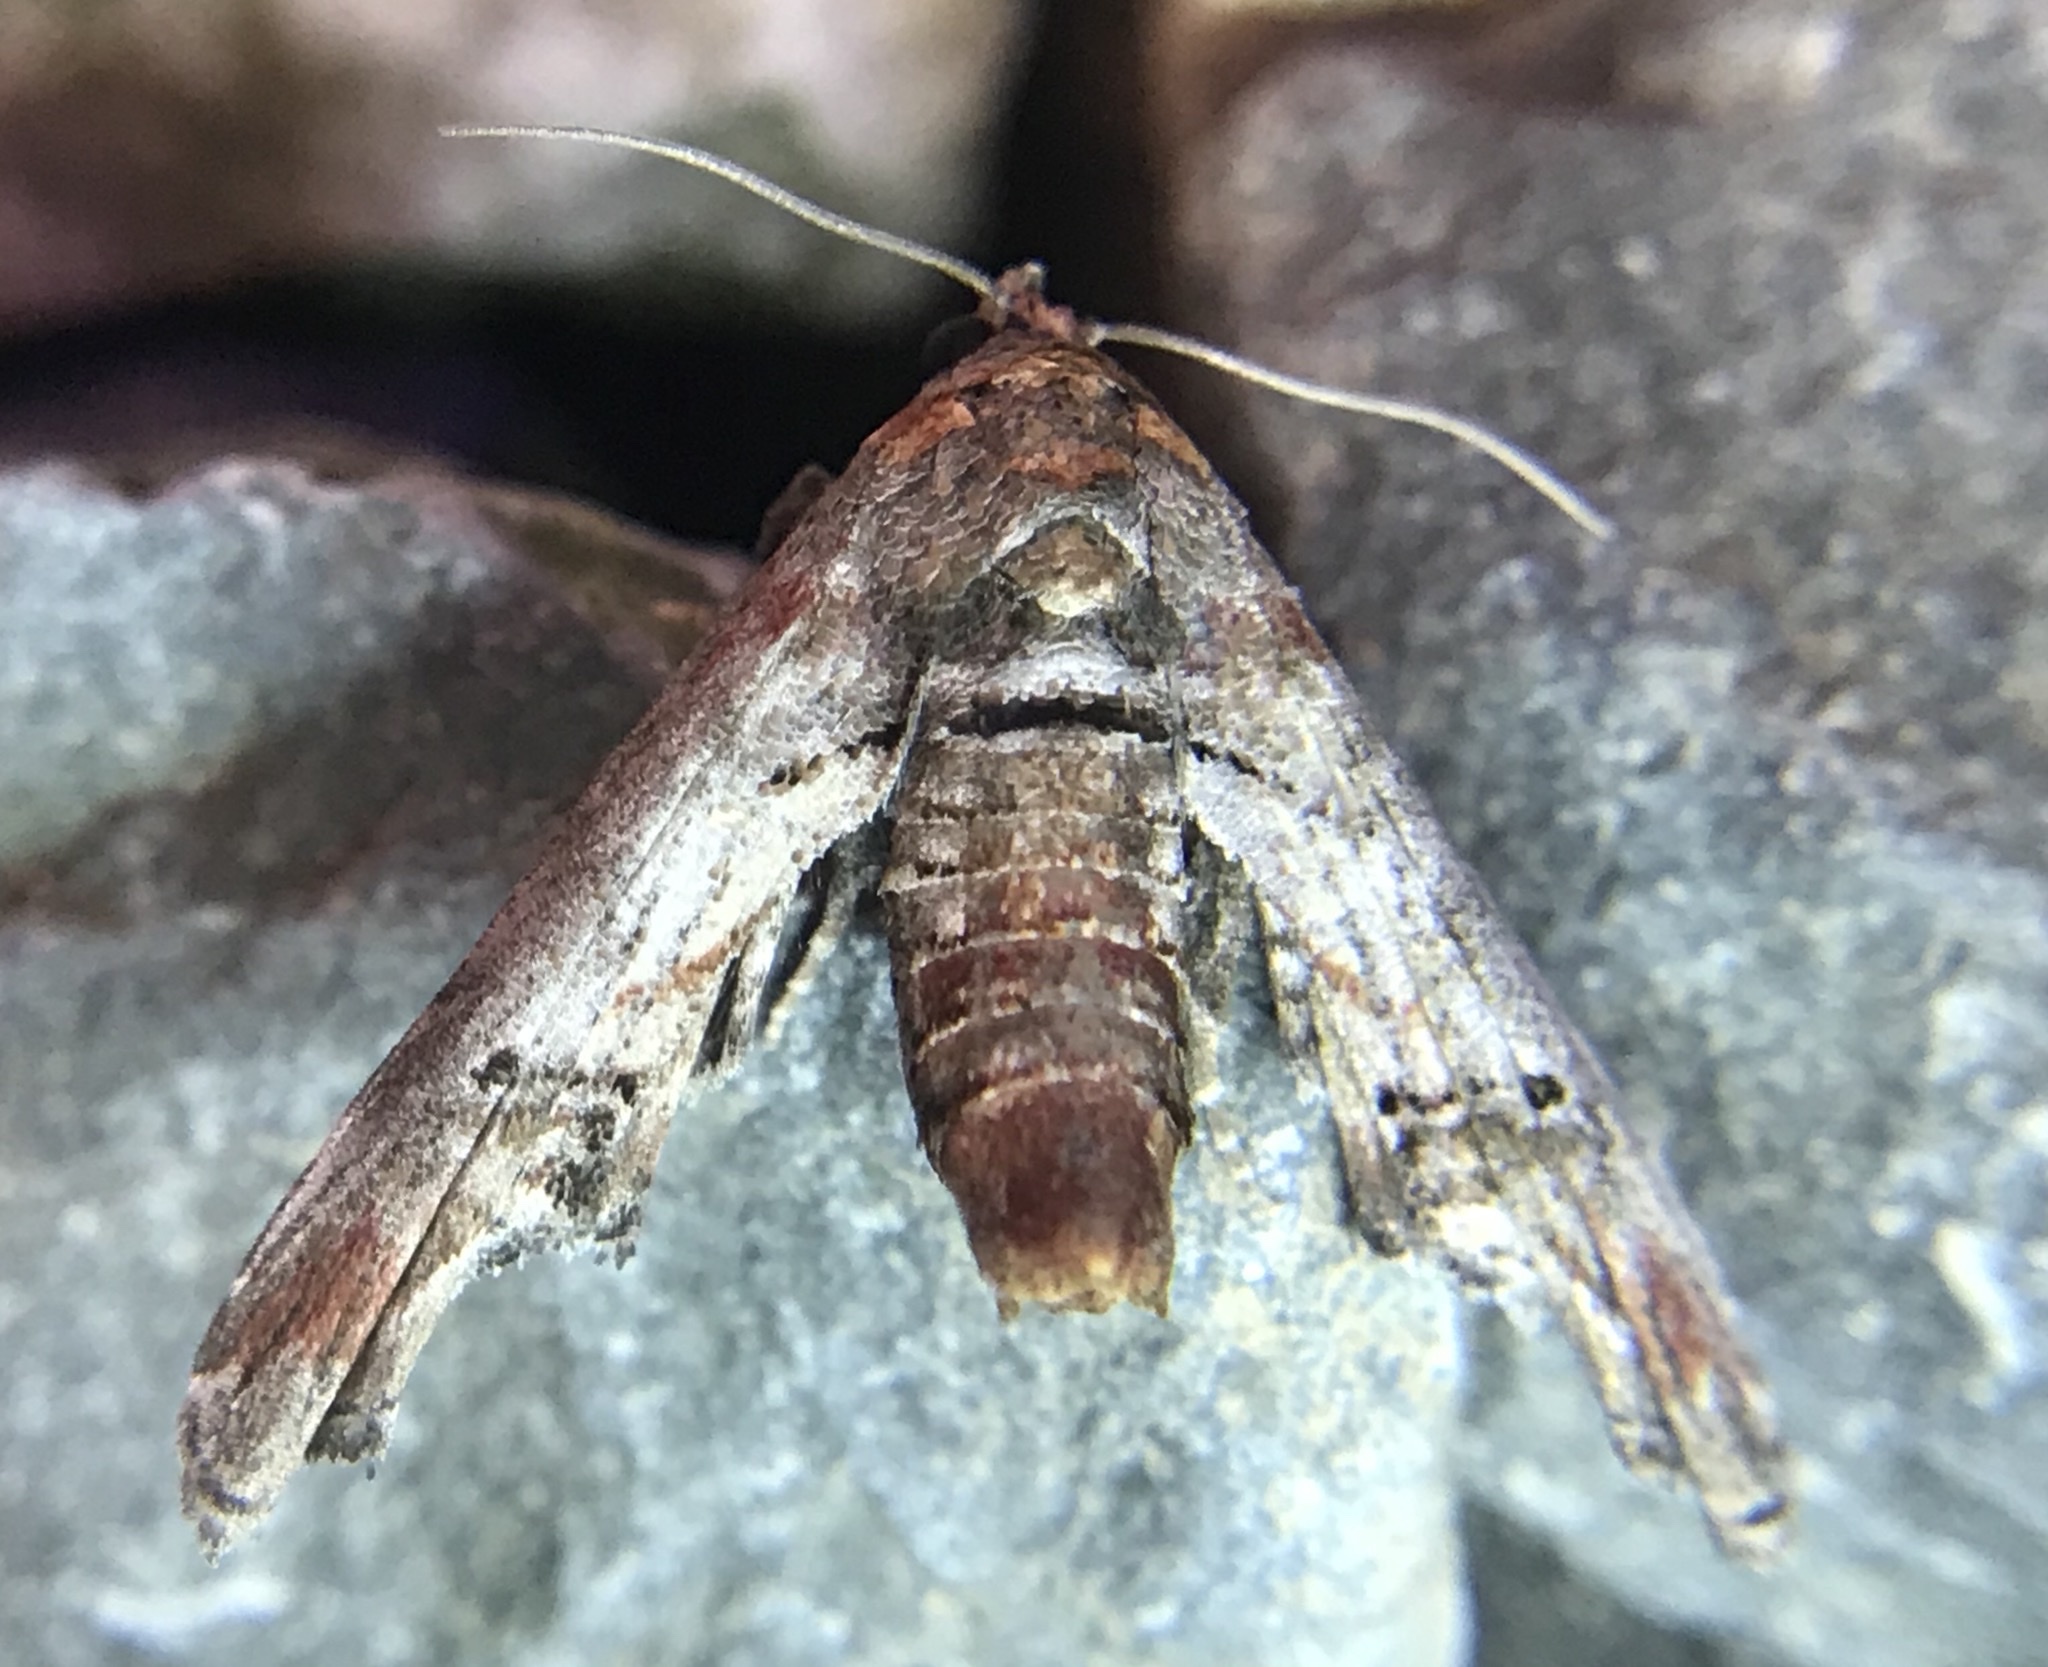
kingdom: Animalia
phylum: Arthropoda
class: Insecta
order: Lepidoptera
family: Euteliidae
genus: Marathyssa
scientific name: Marathyssa inficita
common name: Dark marathyssa moth
